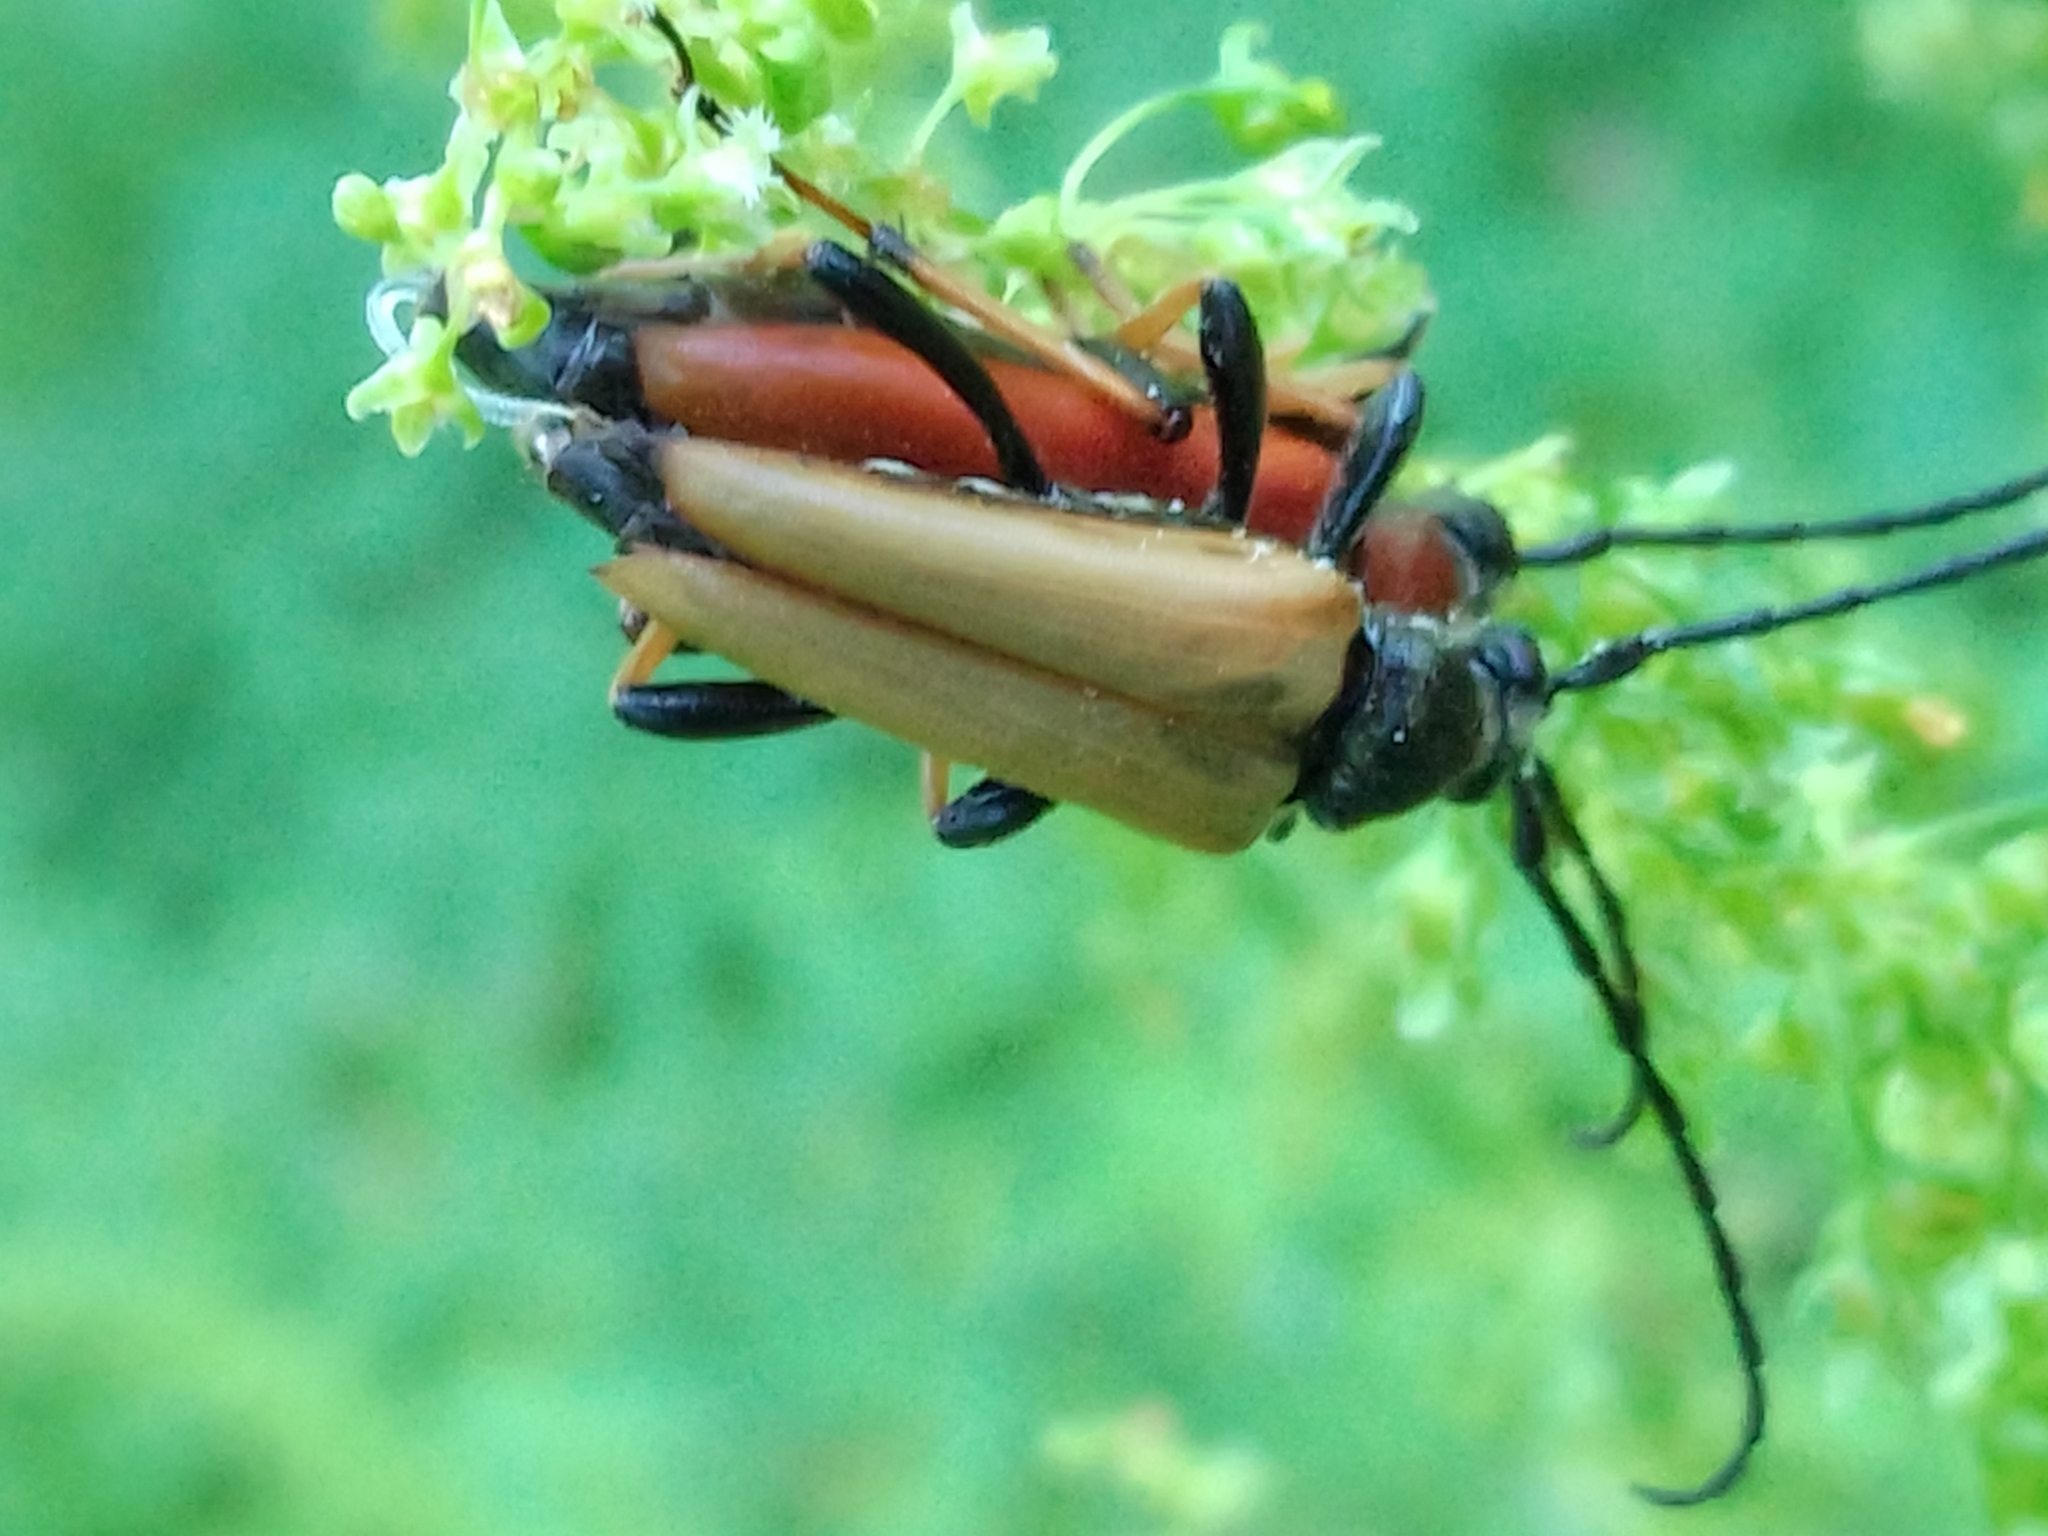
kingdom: Animalia
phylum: Arthropoda
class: Insecta
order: Coleoptera
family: Cerambycidae
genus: Stictoleptura
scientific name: Stictoleptura rubra
